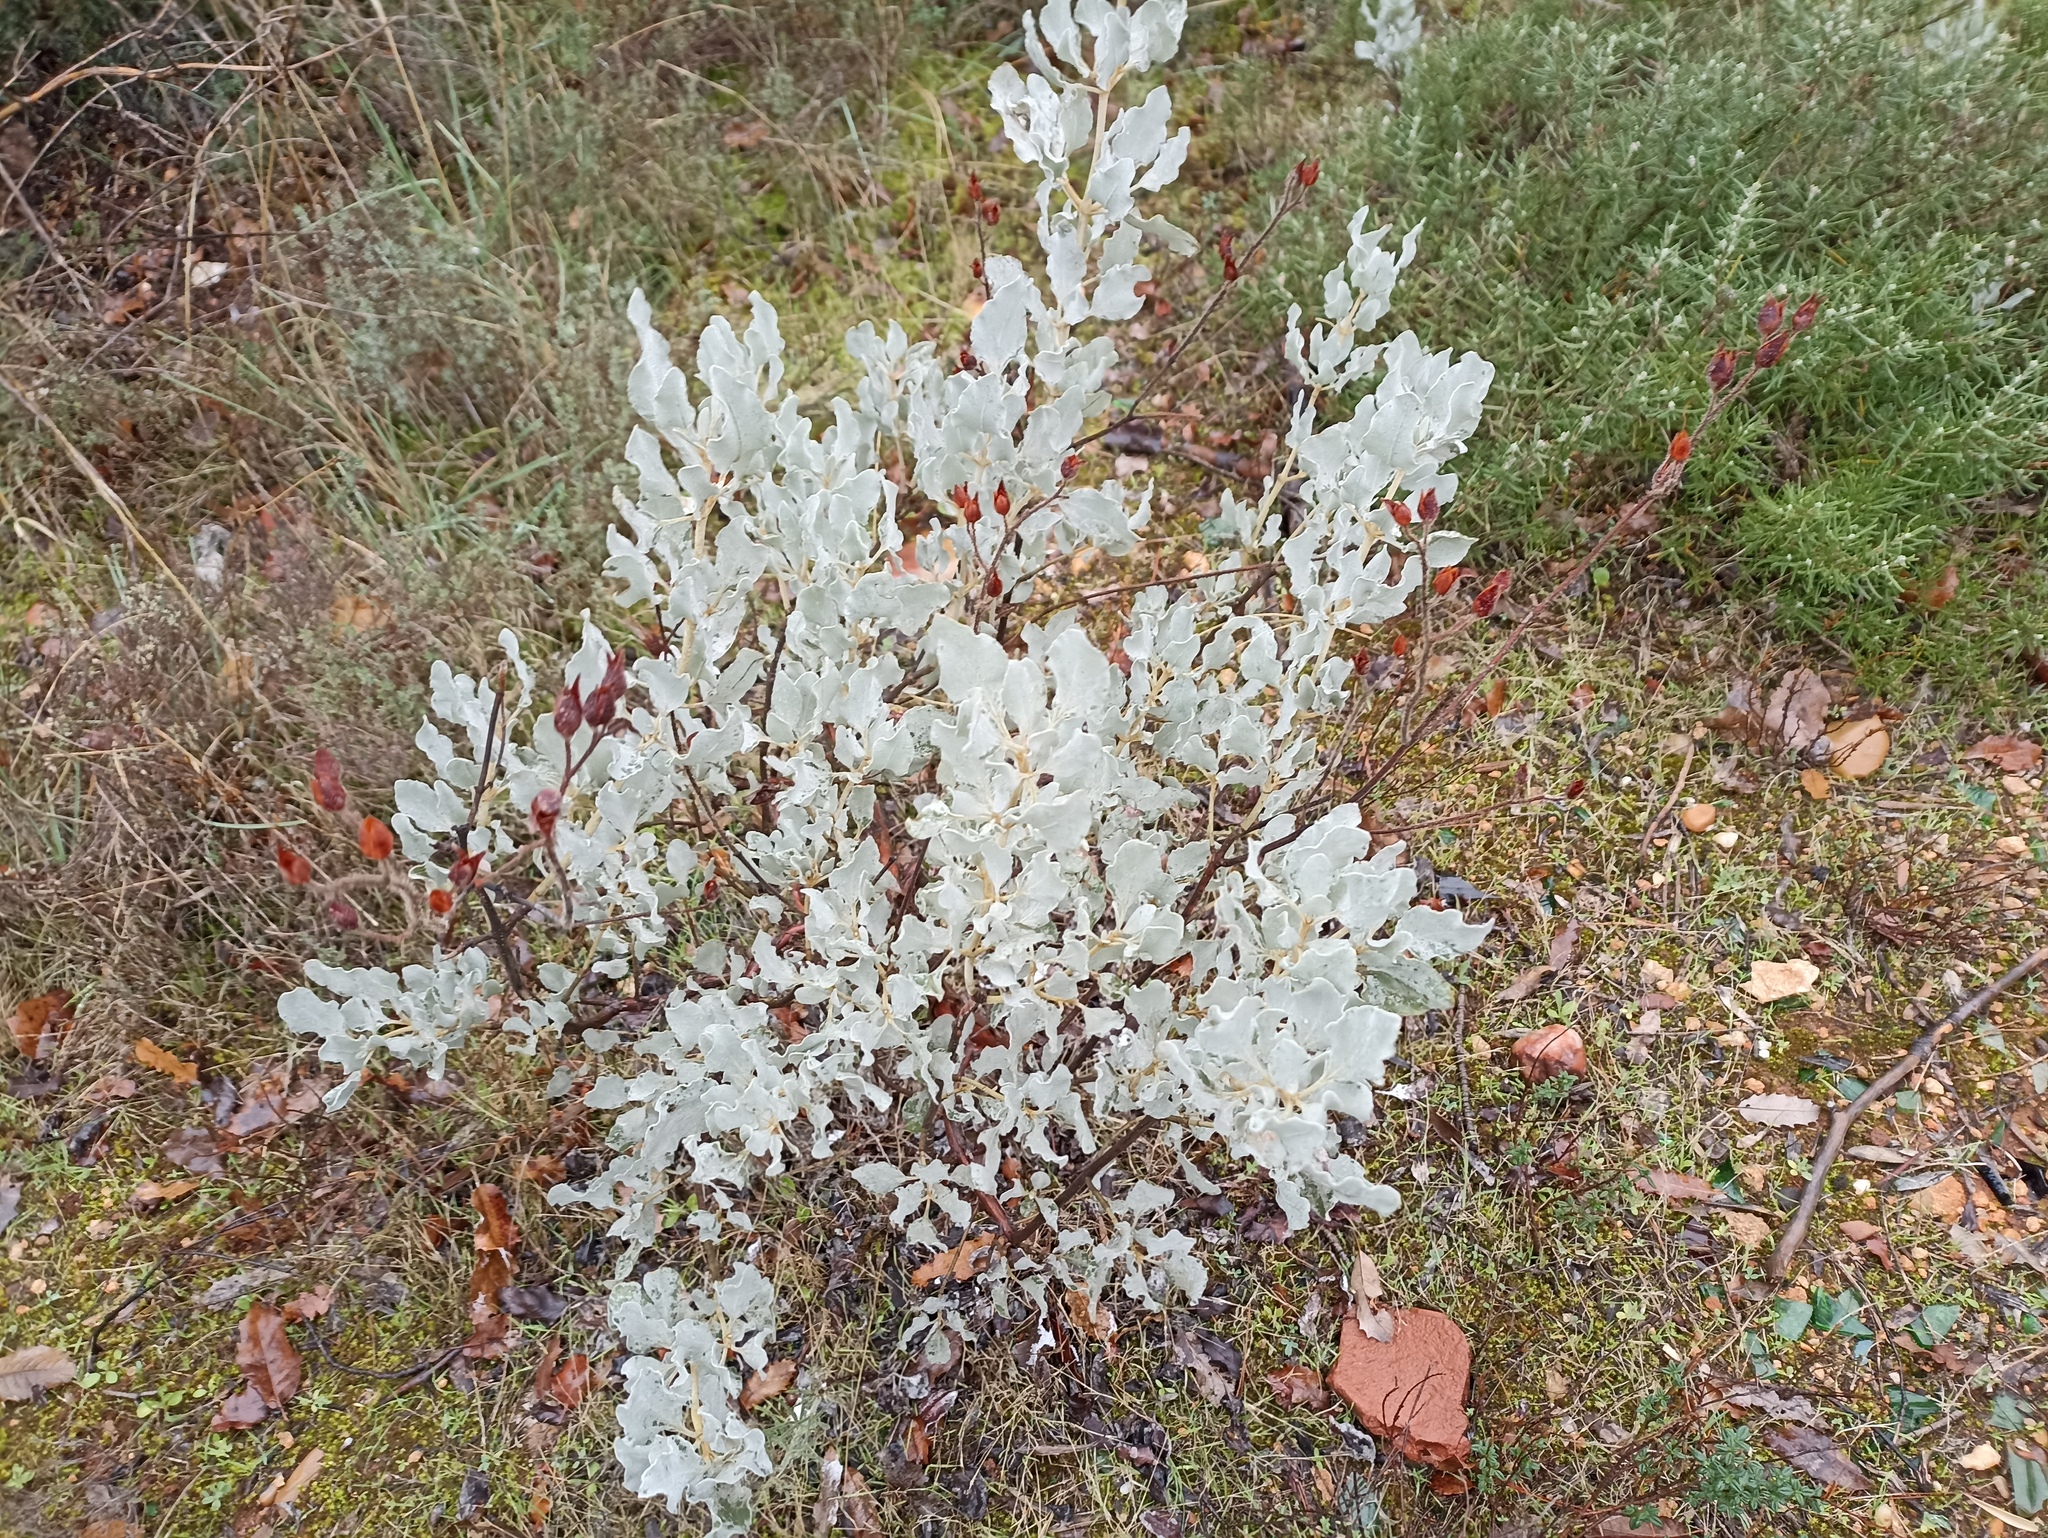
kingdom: Plantae
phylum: Tracheophyta
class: Magnoliopsida
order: Malvales
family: Cistaceae
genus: Halimium
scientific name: Halimium atriplicifolium
